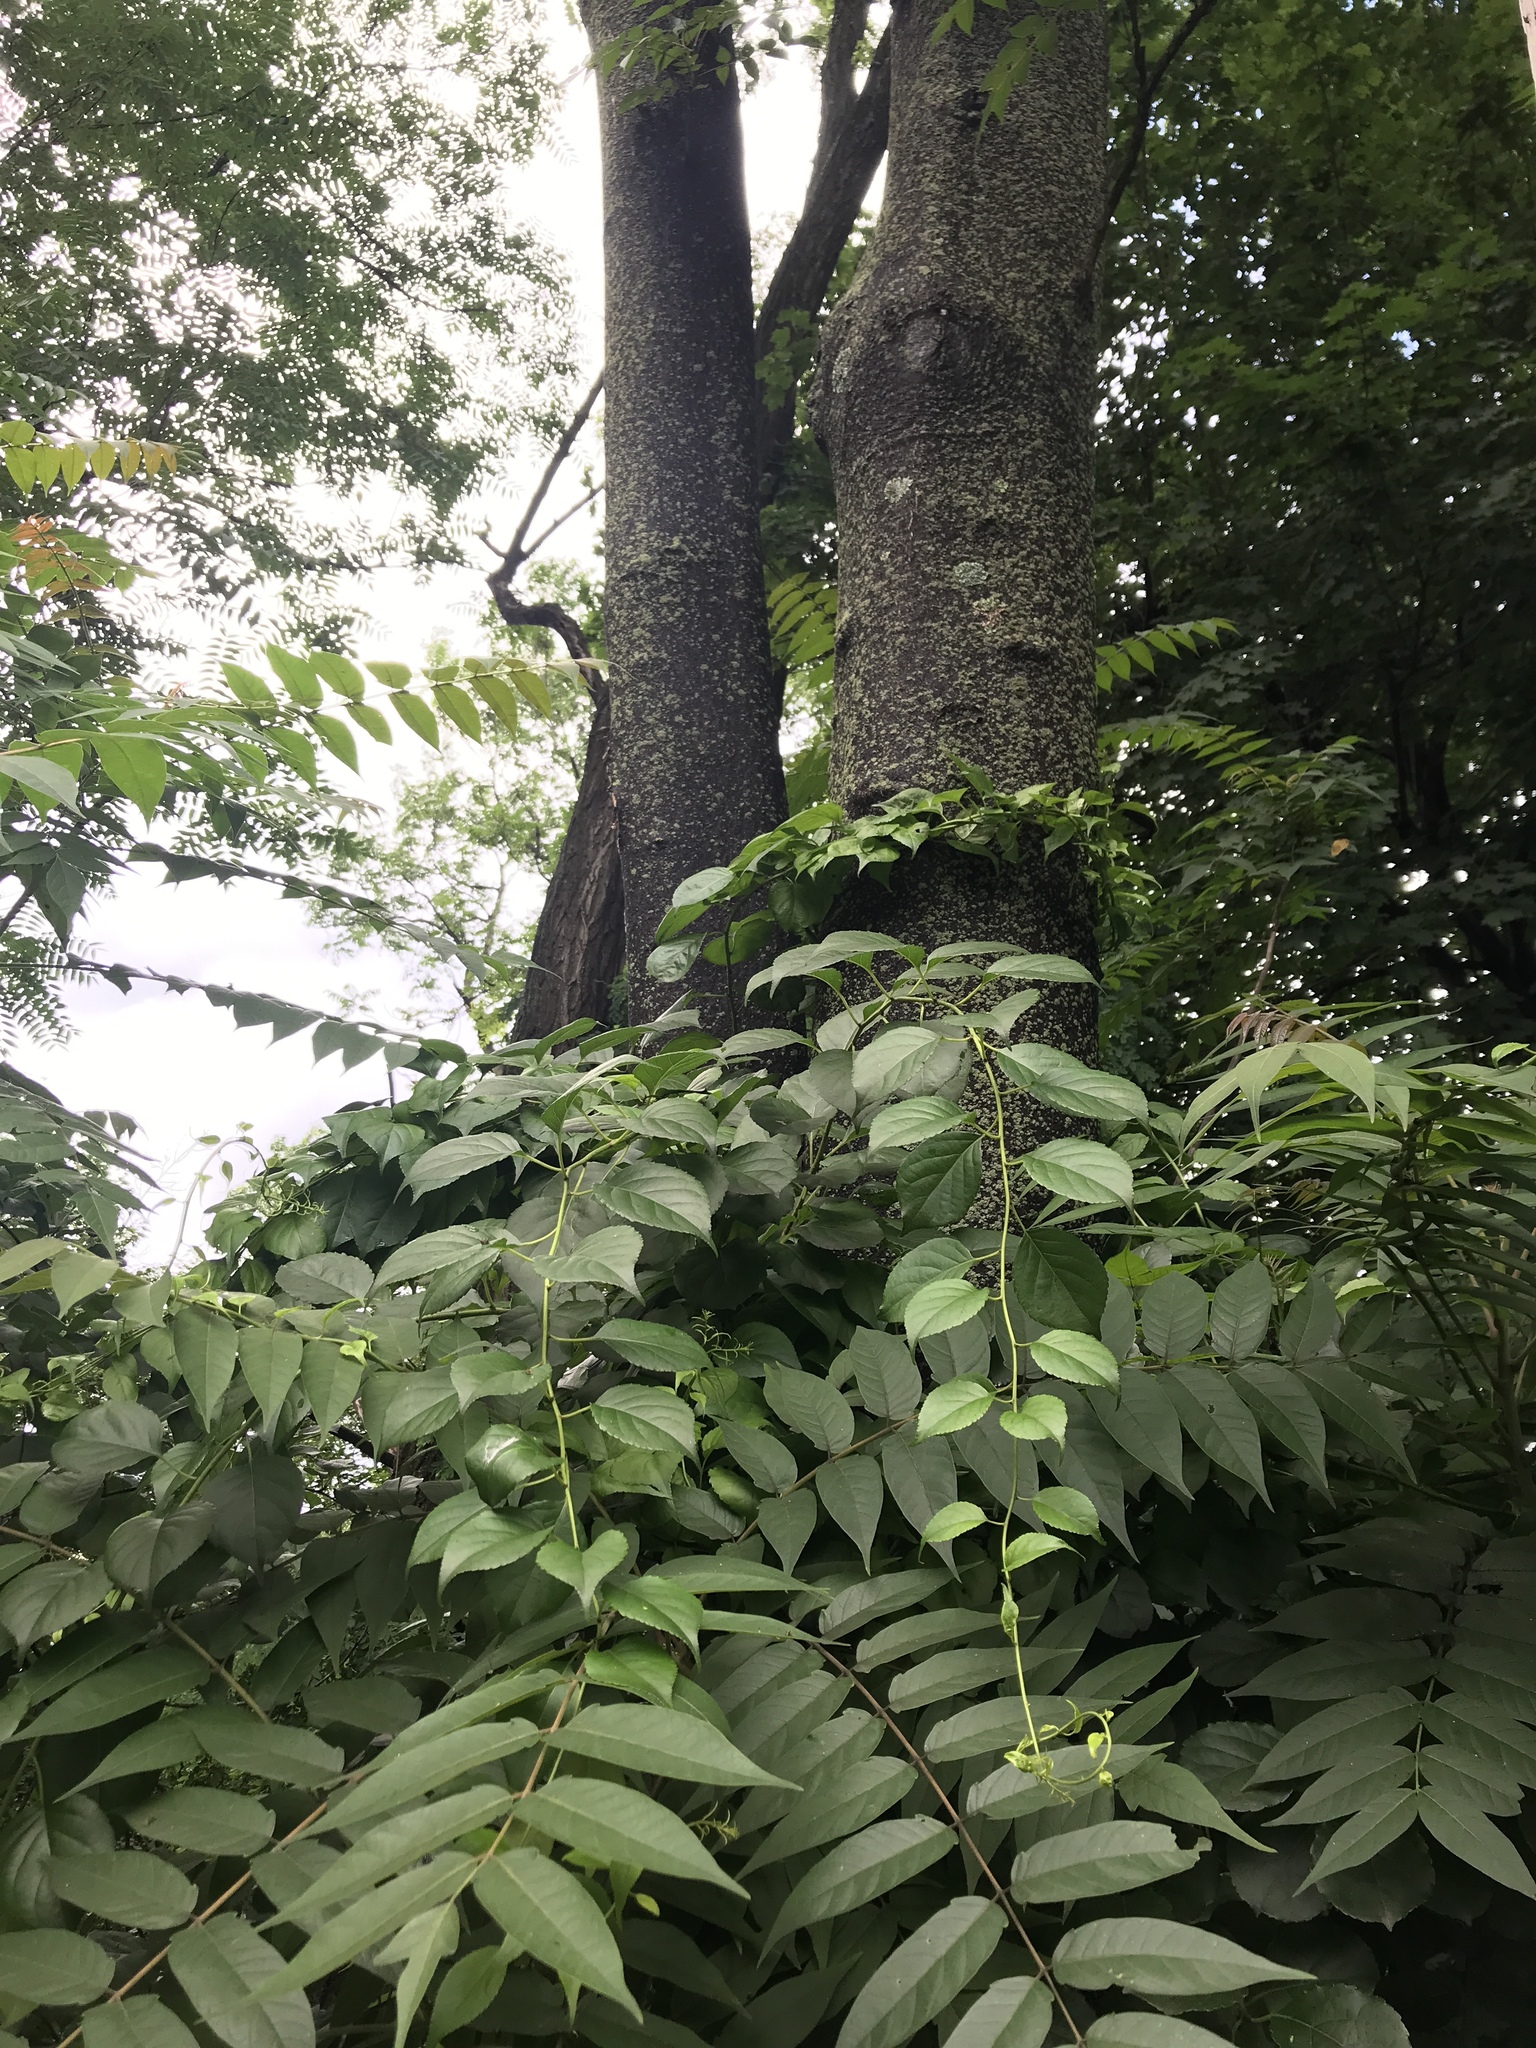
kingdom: Plantae
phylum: Tracheophyta
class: Magnoliopsida
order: Sapindales
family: Simaroubaceae
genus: Ailanthus
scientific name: Ailanthus altissima
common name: Tree-of-heaven
